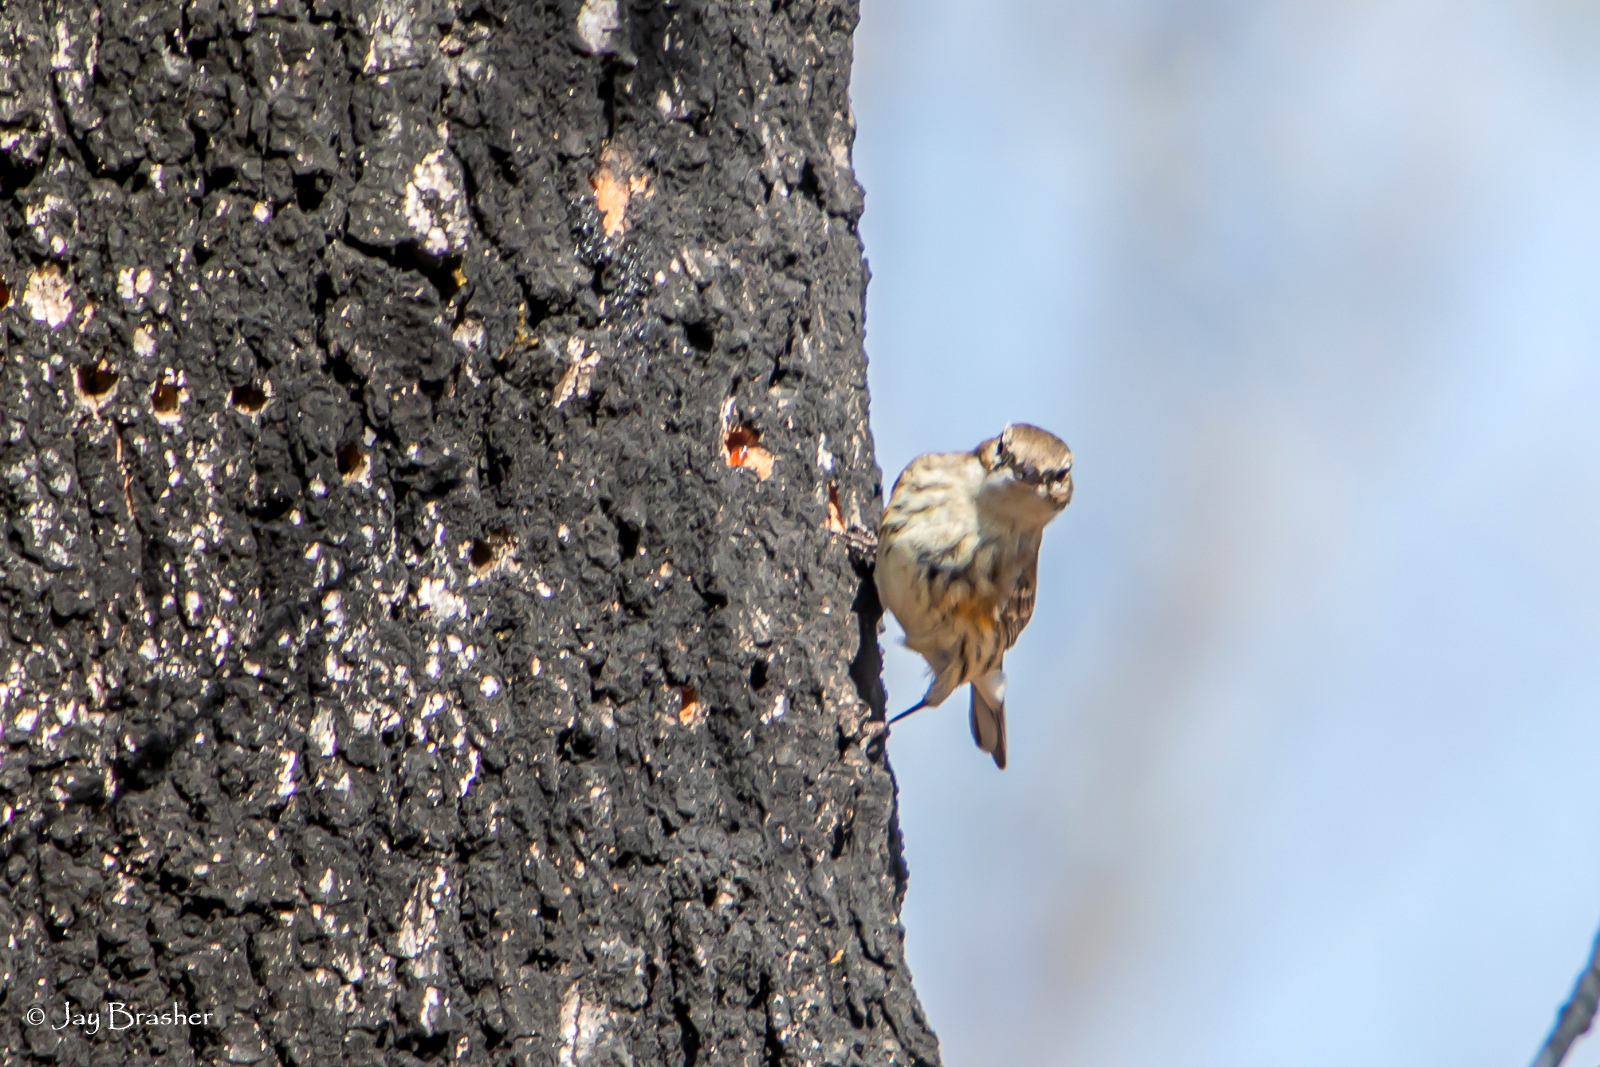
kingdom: Animalia
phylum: Chordata
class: Aves
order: Passeriformes
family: Parulidae
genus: Setophaga
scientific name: Setophaga coronata
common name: Myrtle warbler
